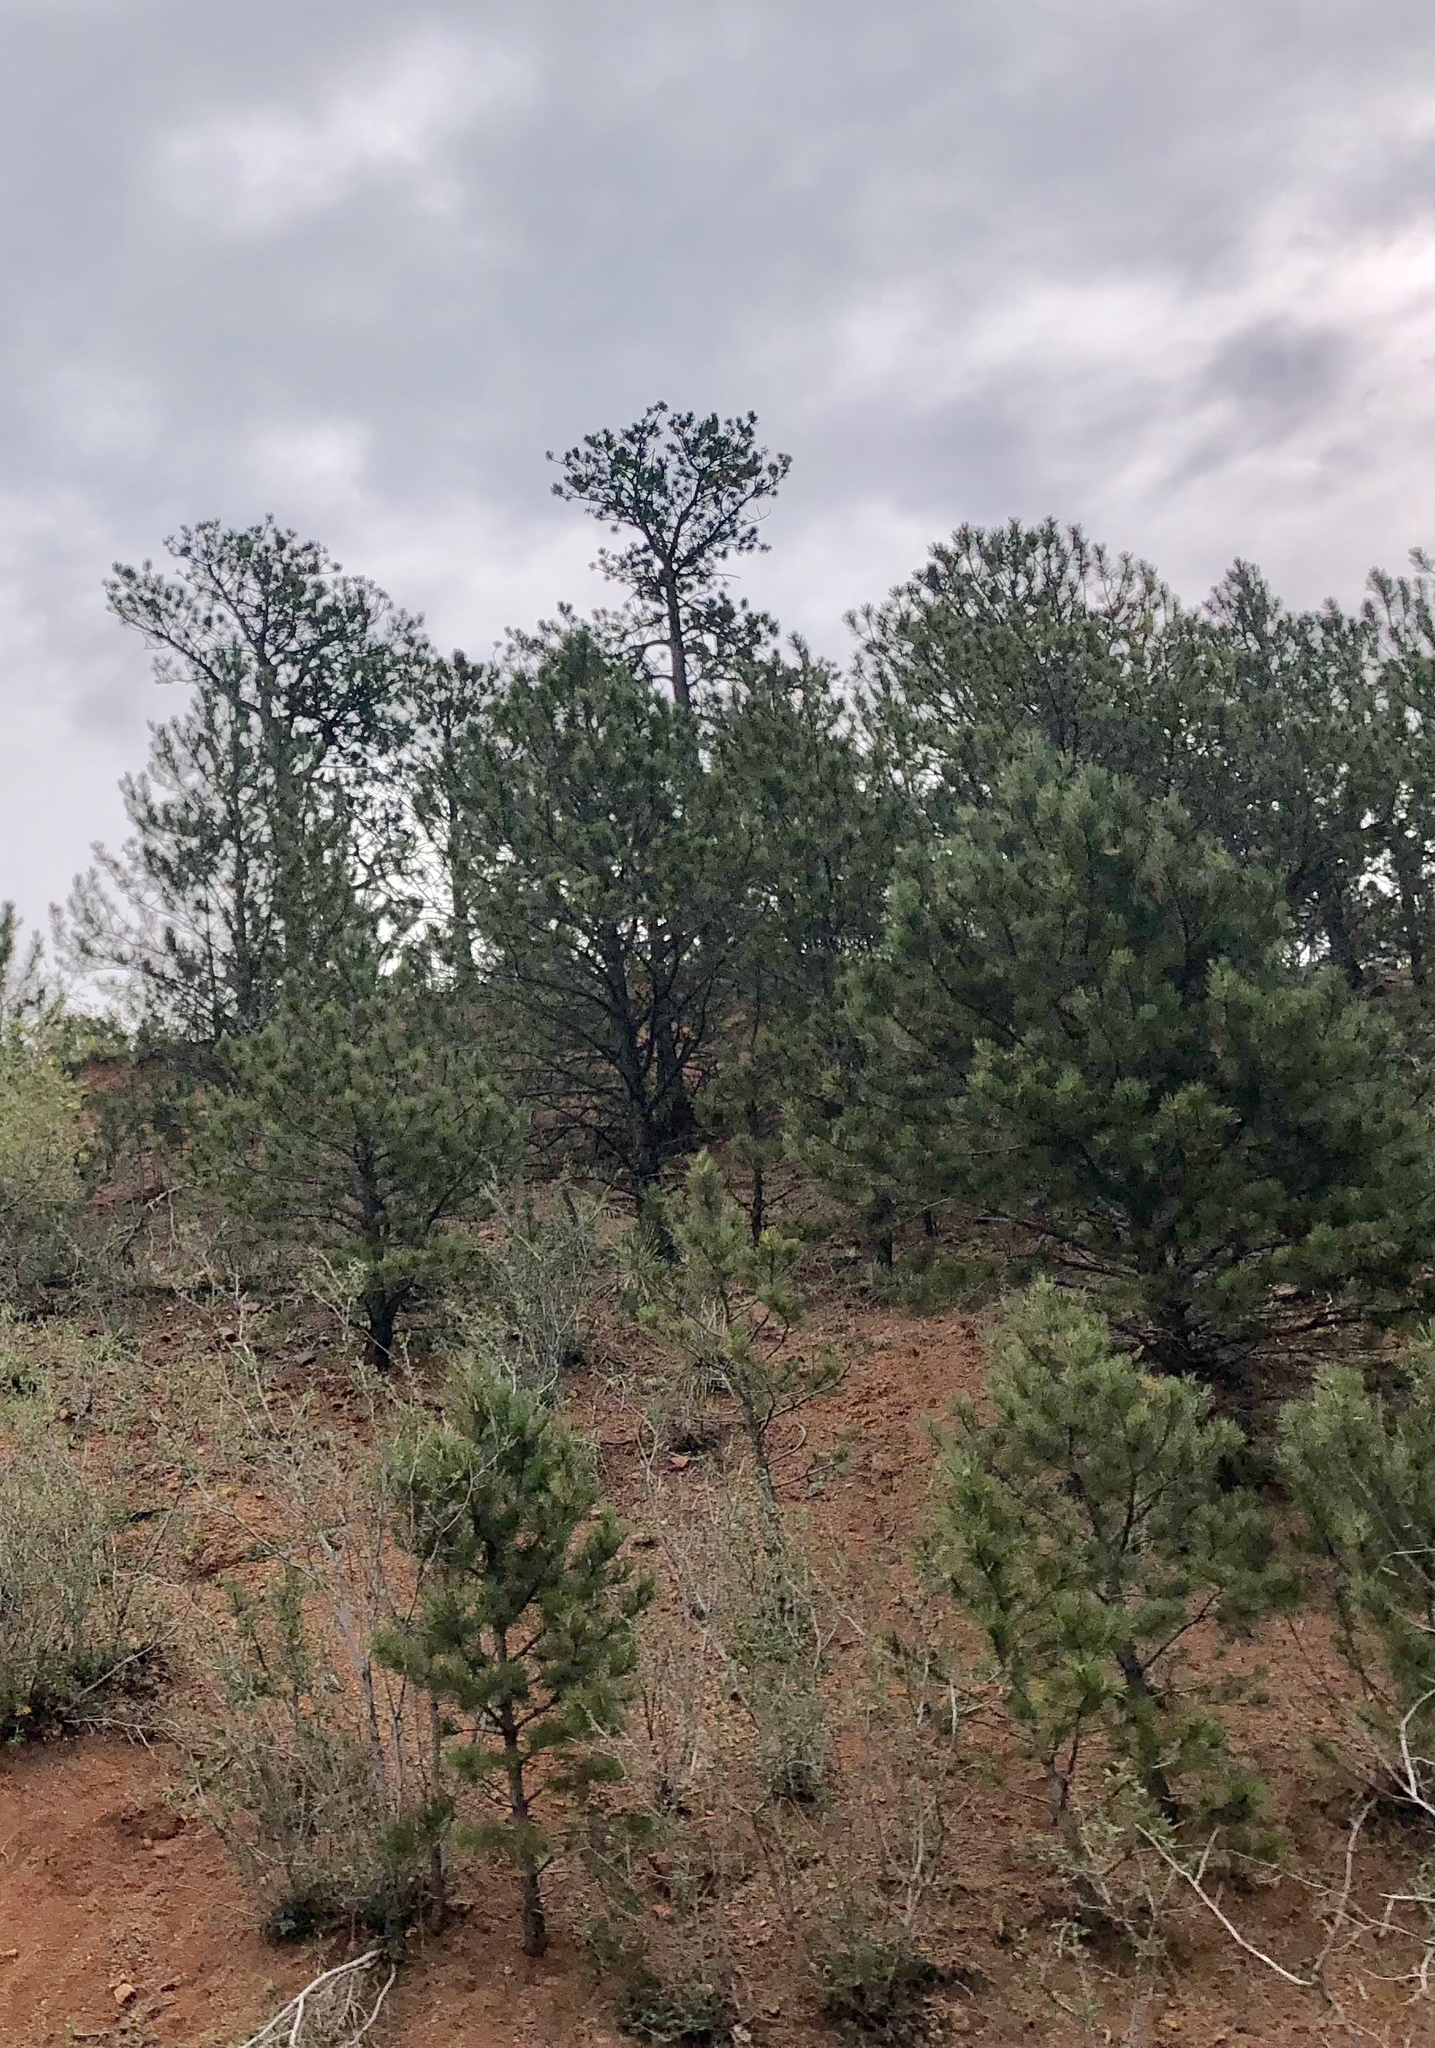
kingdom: Plantae
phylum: Tracheophyta
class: Pinopsida
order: Pinales
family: Pinaceae
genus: Pinus
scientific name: Pinus ponderosa
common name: Western yellow-pine
